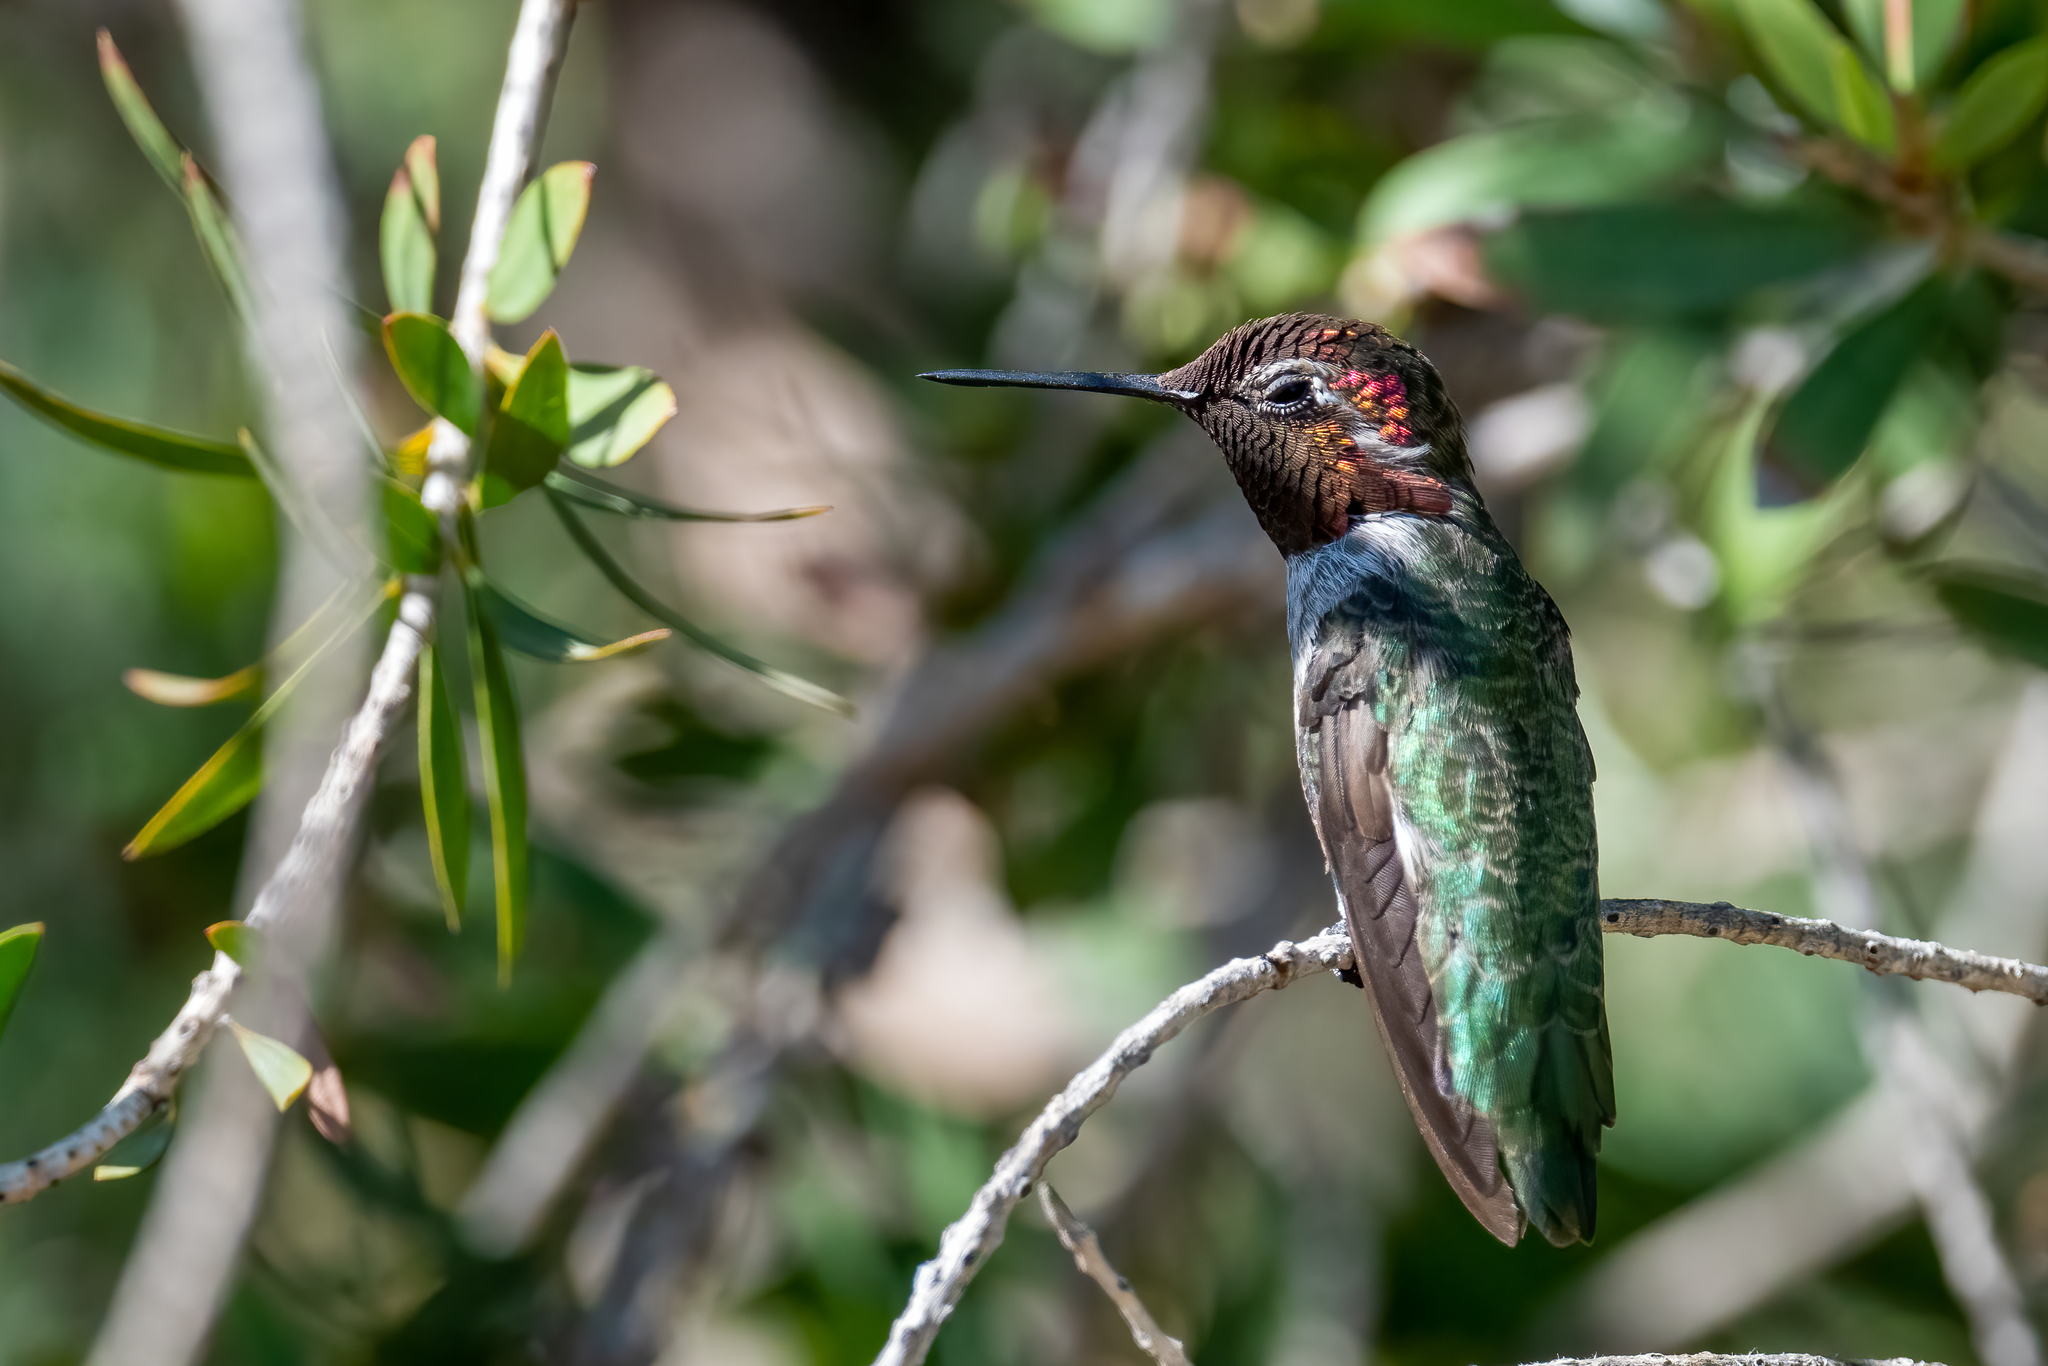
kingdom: Animalia
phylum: Chordata
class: Aves
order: Apodiformes
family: Trochilidae
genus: Calypte
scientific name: Calypte anna
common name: Anna's hummingbird
